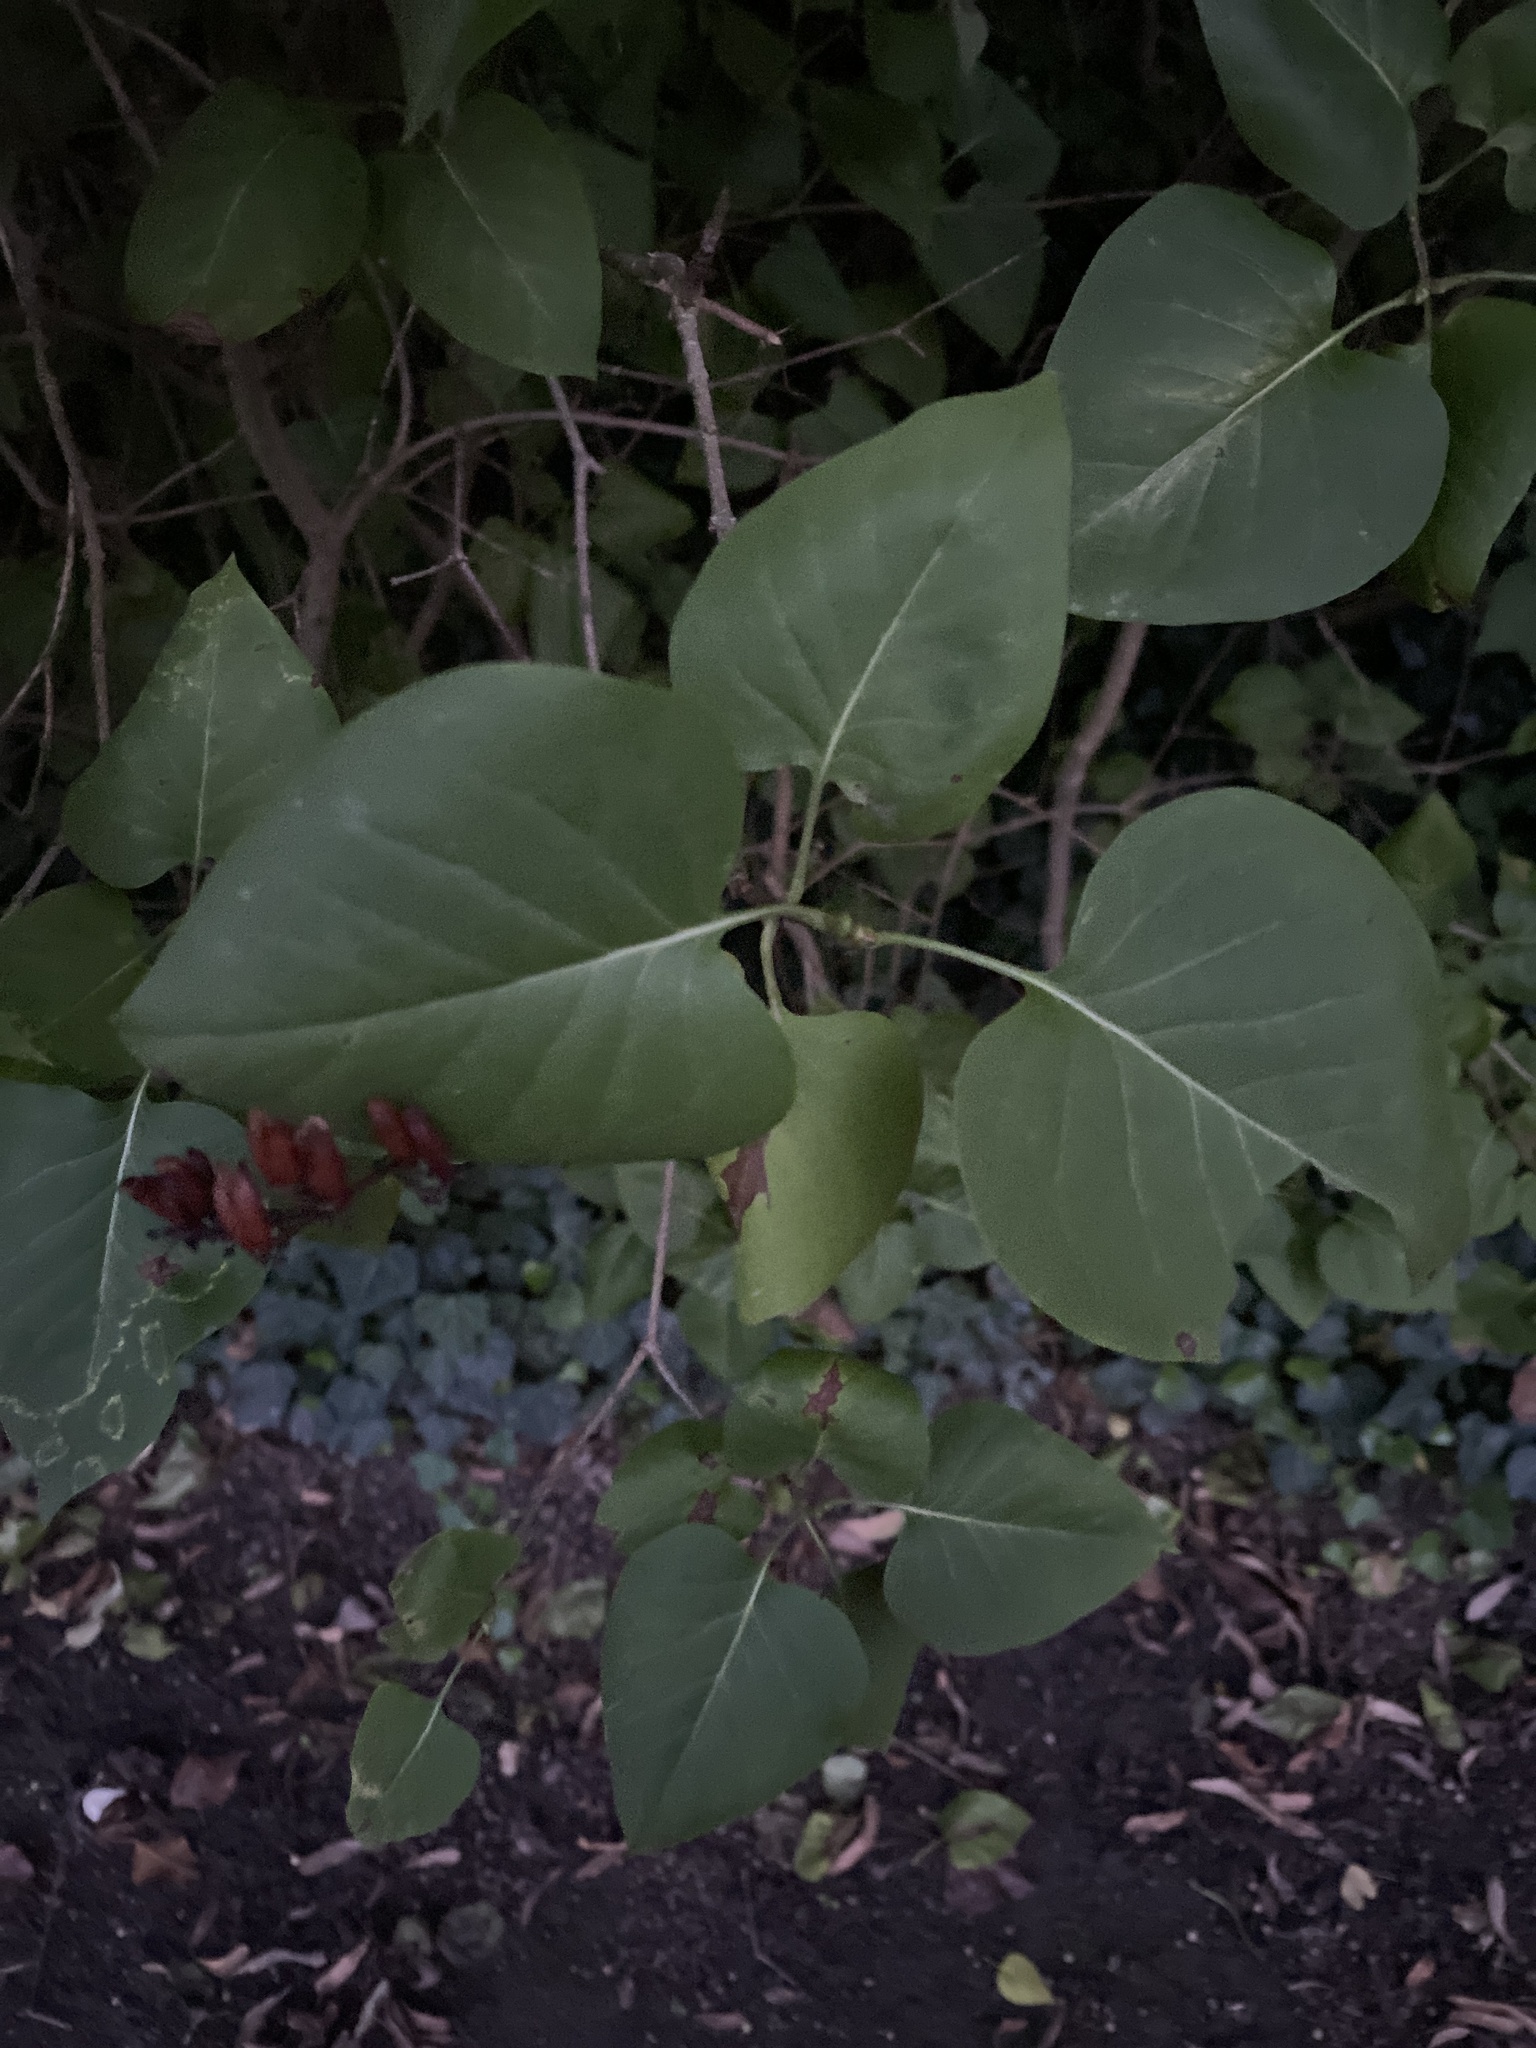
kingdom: Plantae
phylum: Tracheophyta
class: Magnoliopsida
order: Lamiales
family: Oleaceae
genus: Syringa
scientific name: Syringa vulgaris
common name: Common lilac
